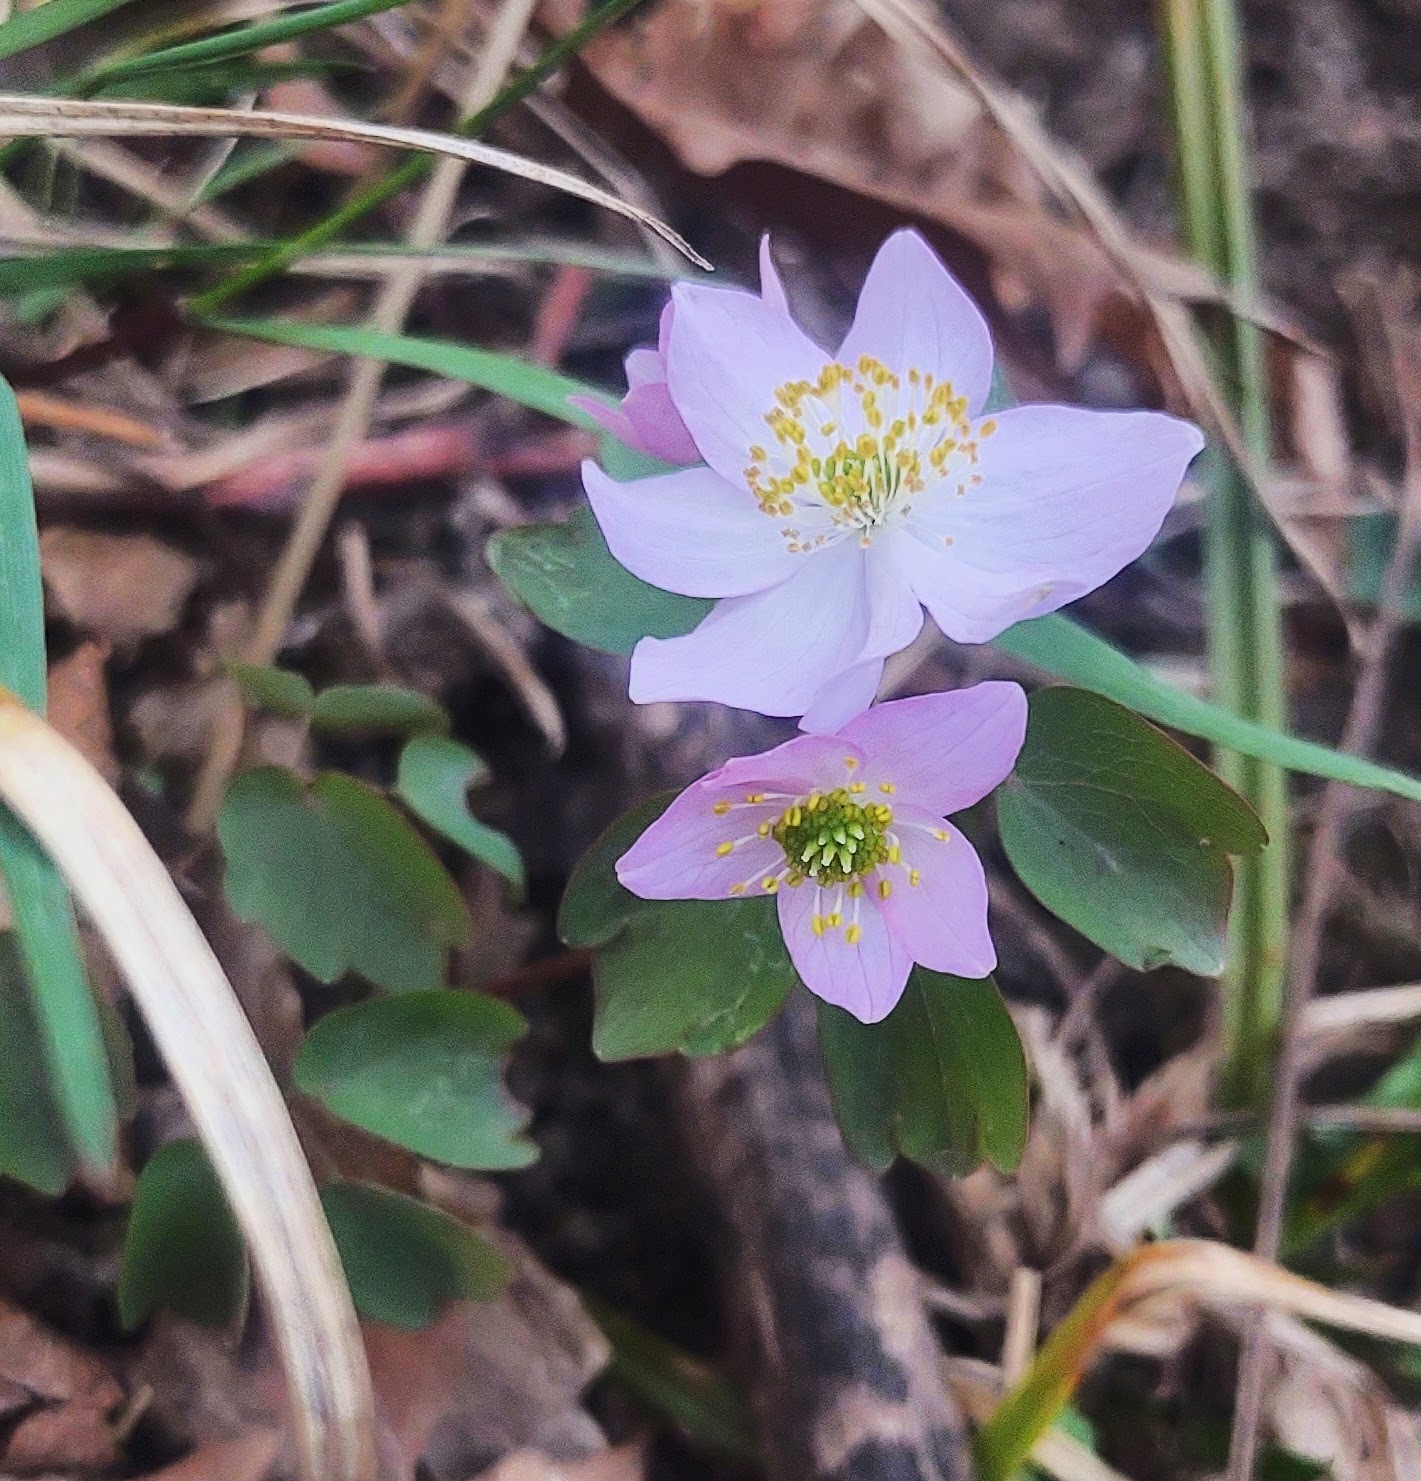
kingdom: Plantae
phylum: Tracheophyta
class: Magnoliopsida
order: Ranunculales
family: Ranunculaceae
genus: Thalictrum
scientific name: Thalictrum thalictroides
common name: Rue-anemone
